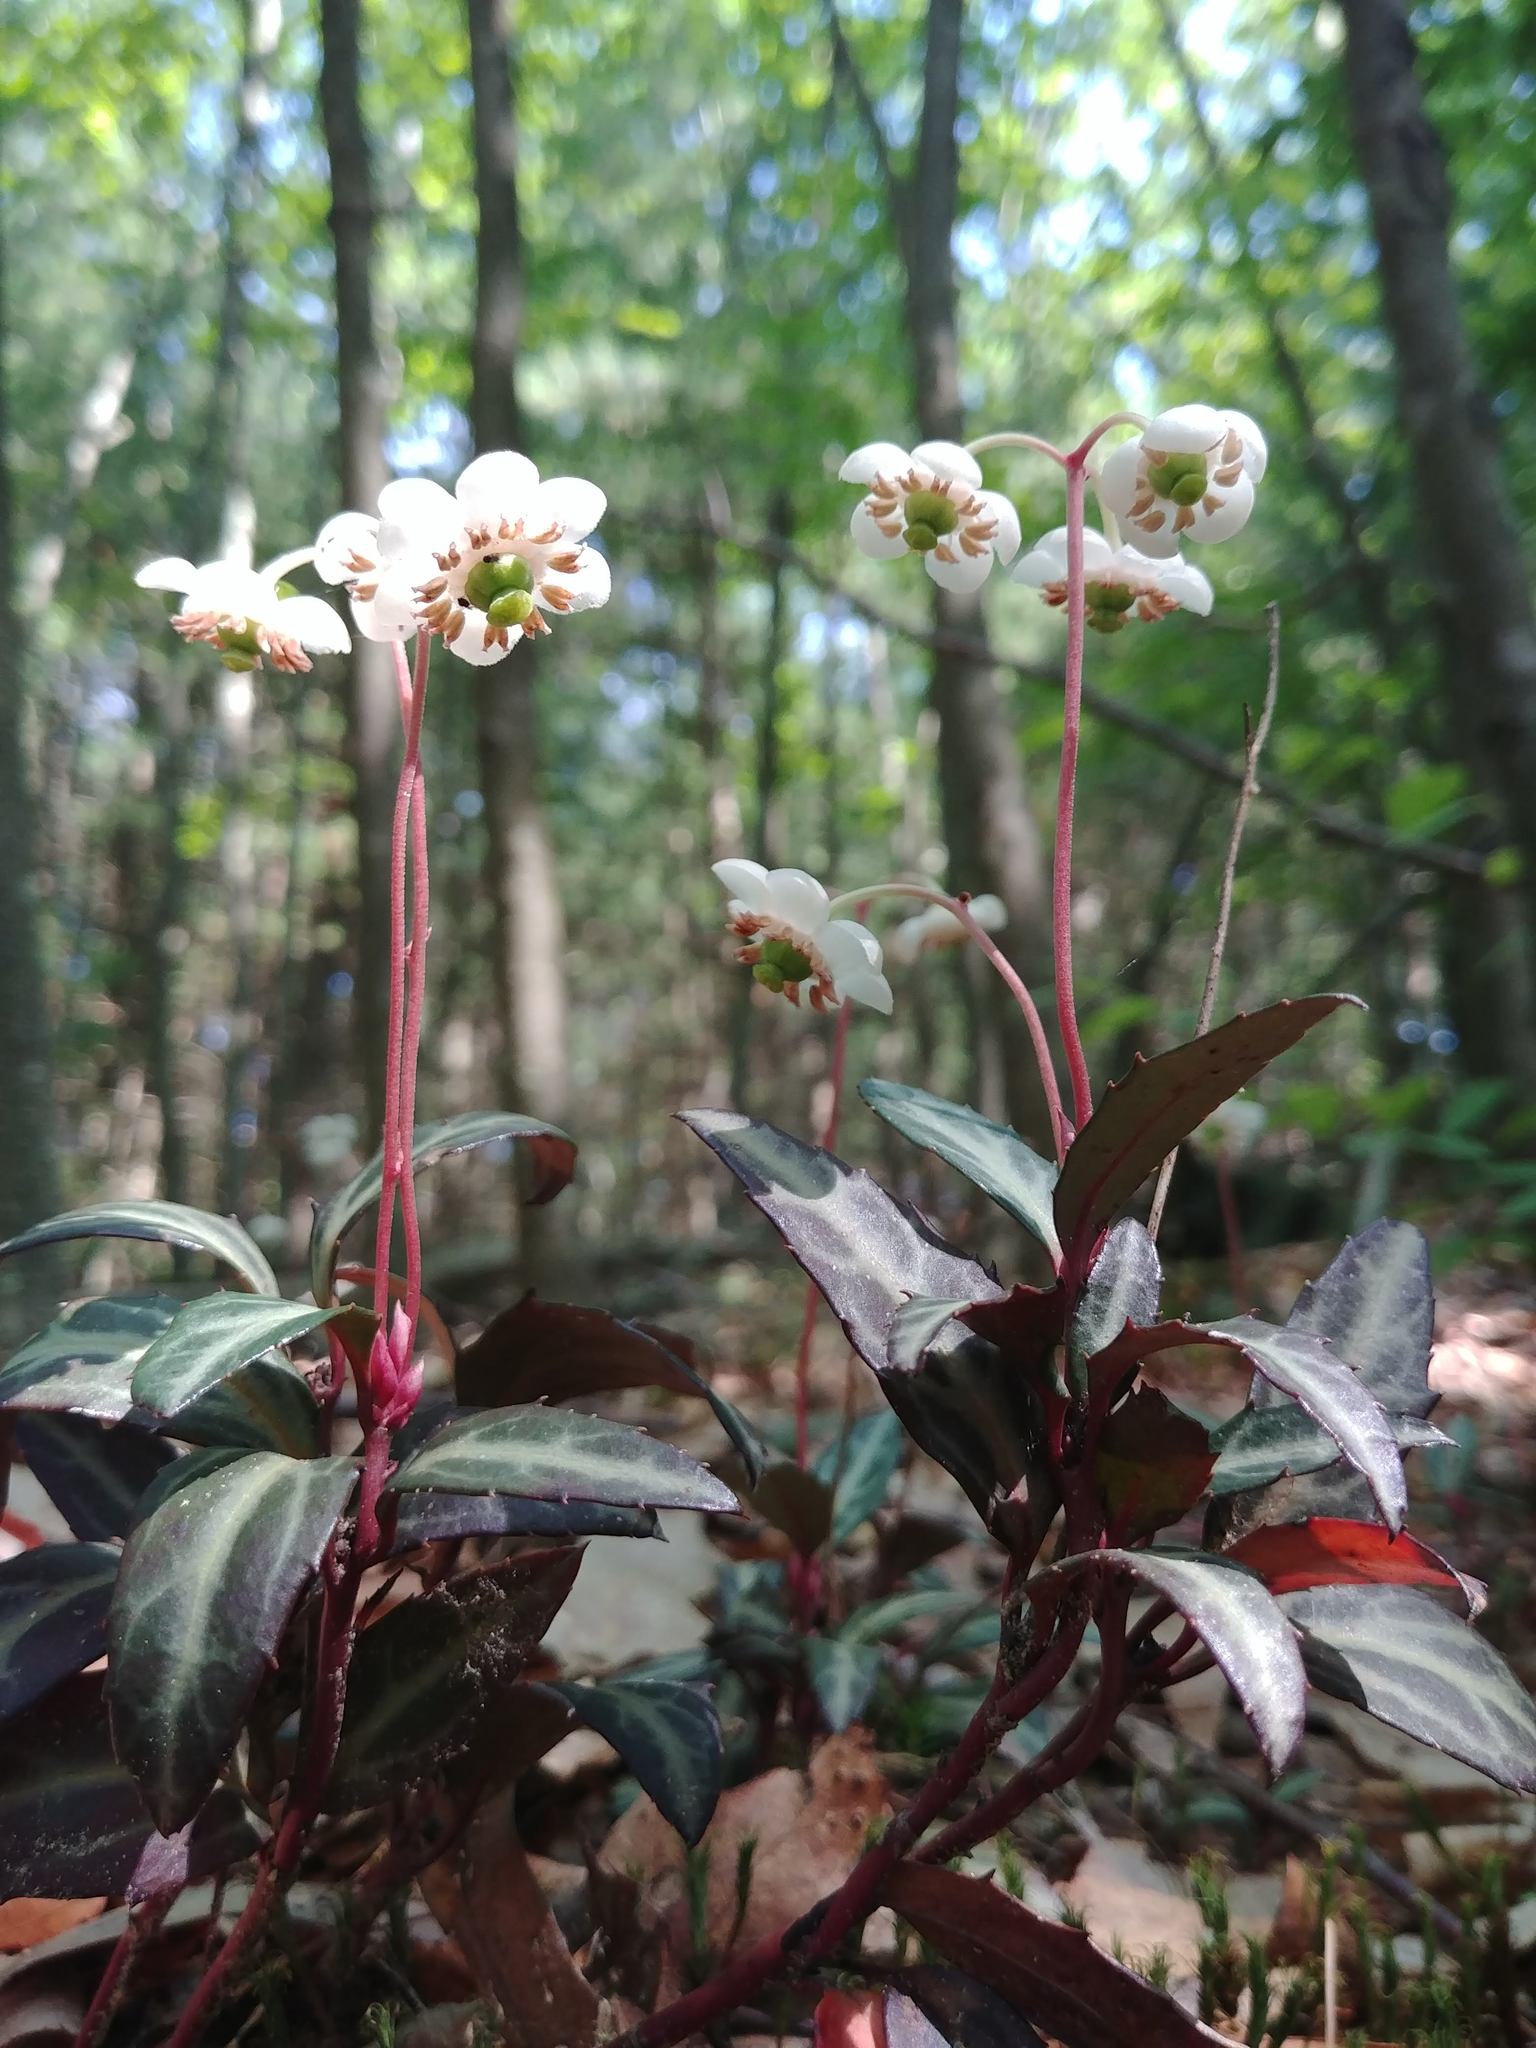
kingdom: Plantae
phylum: Tracheophyta
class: Magnoliopsida
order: Ericales
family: Ericaceae
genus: Chimaphila
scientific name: Chimaphila maculata
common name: Spotted pipsissewa
